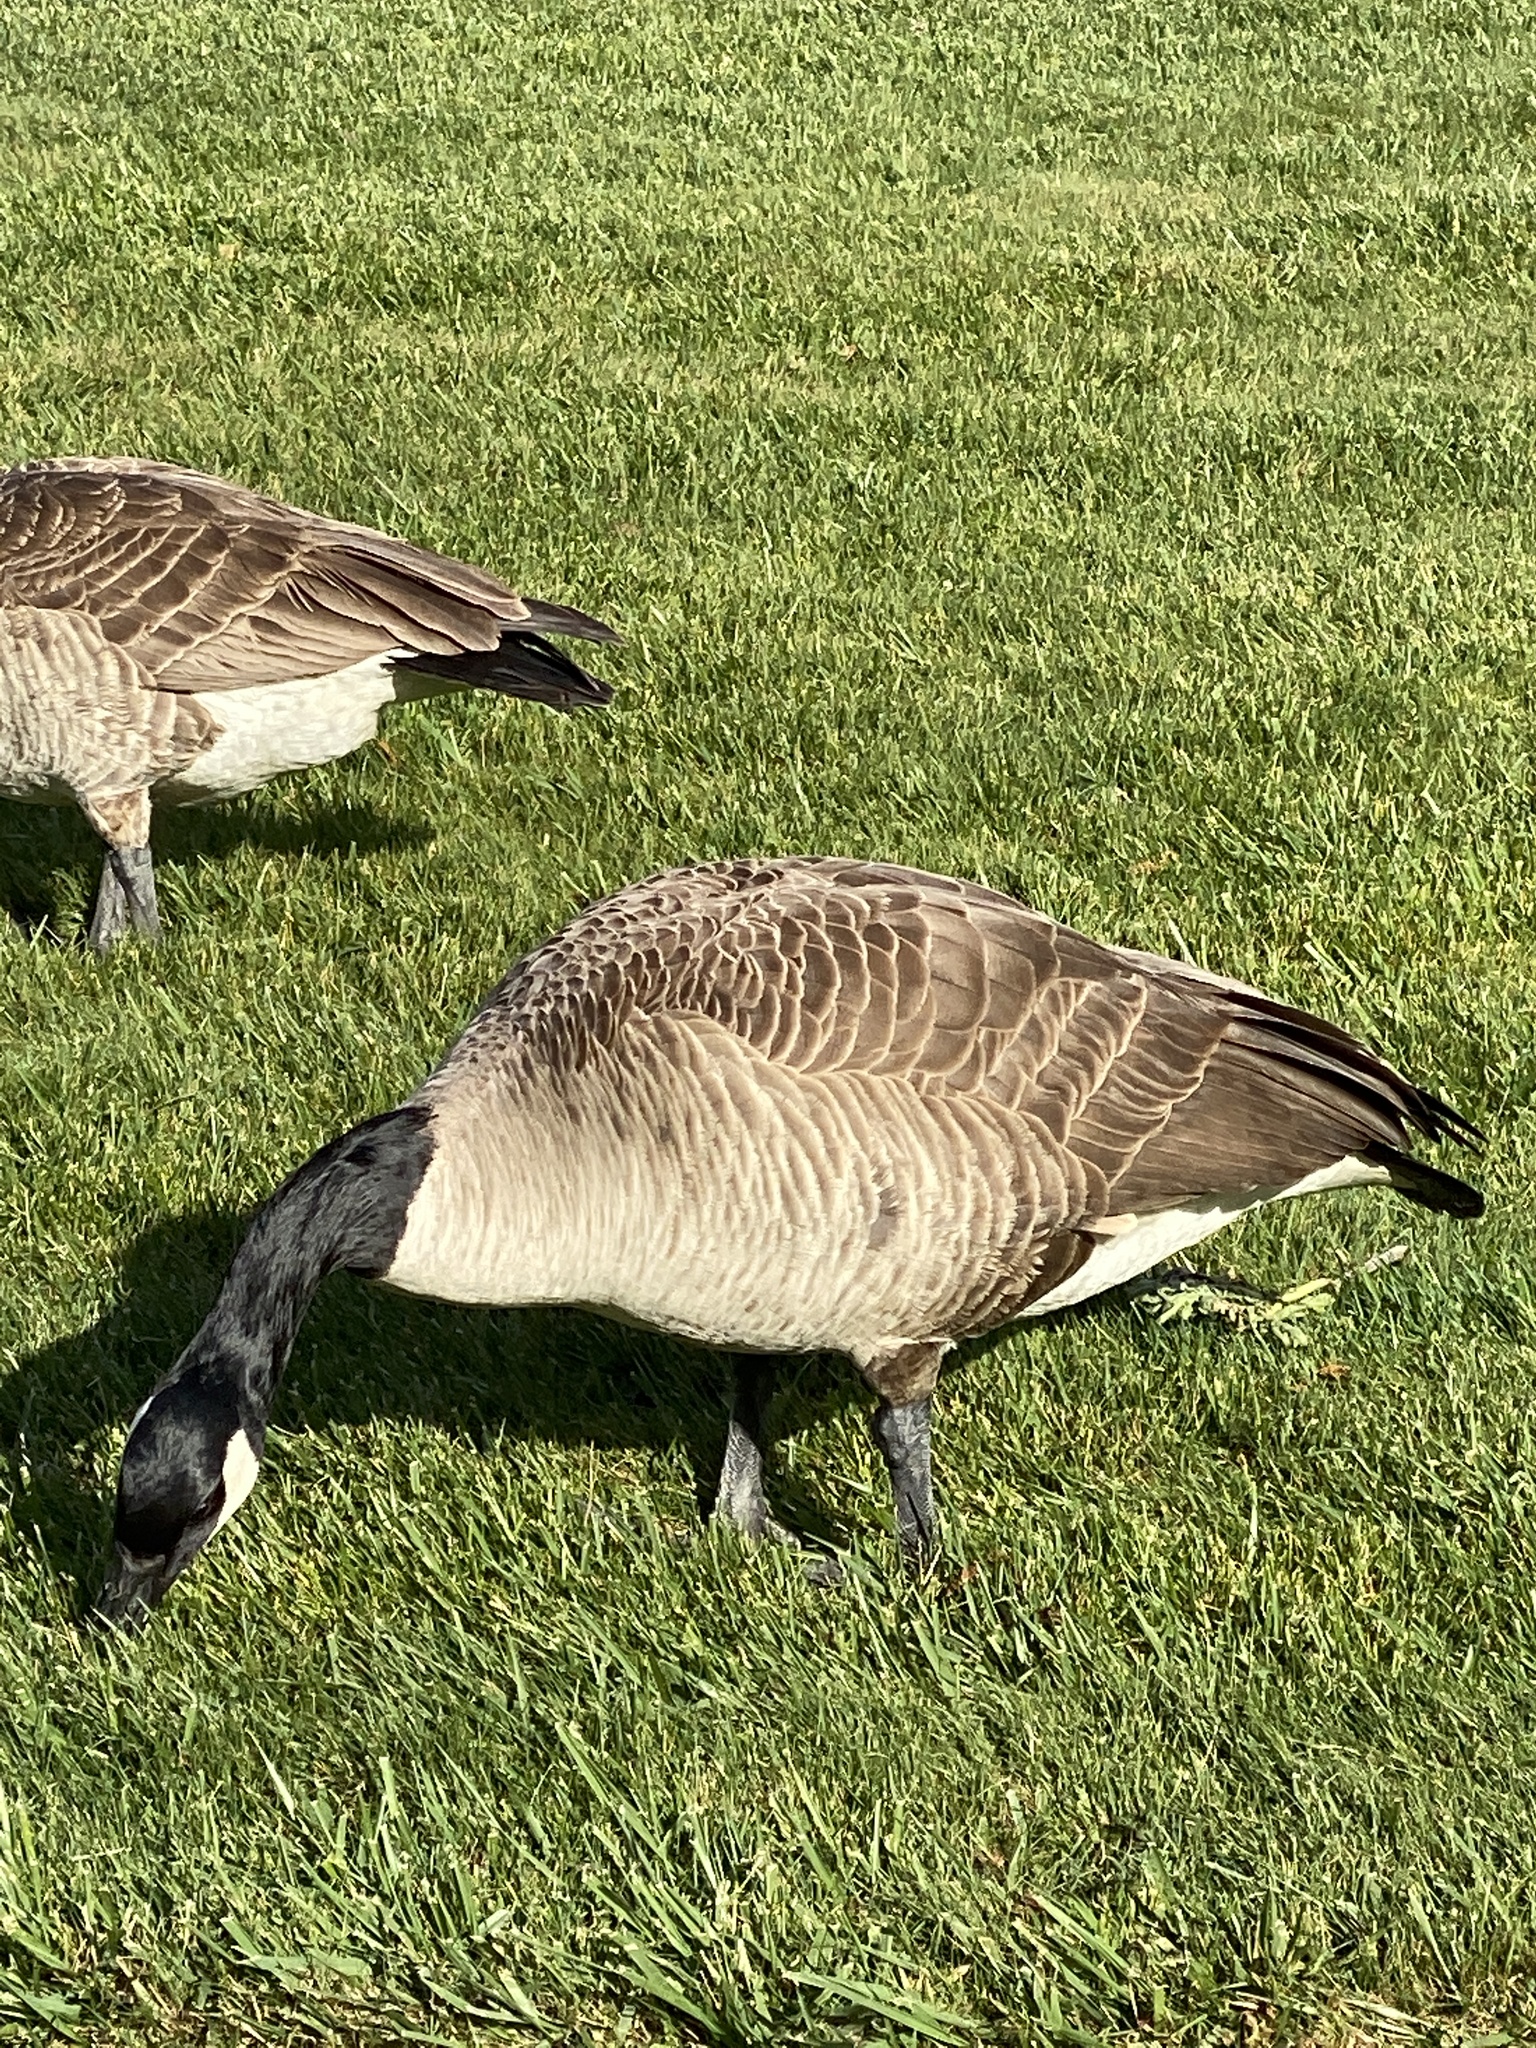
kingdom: Animalia
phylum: Chordata
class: Aves
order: Anseriformes
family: Anatidae
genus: Branta
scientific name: Branta canadensis
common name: Canada goose
